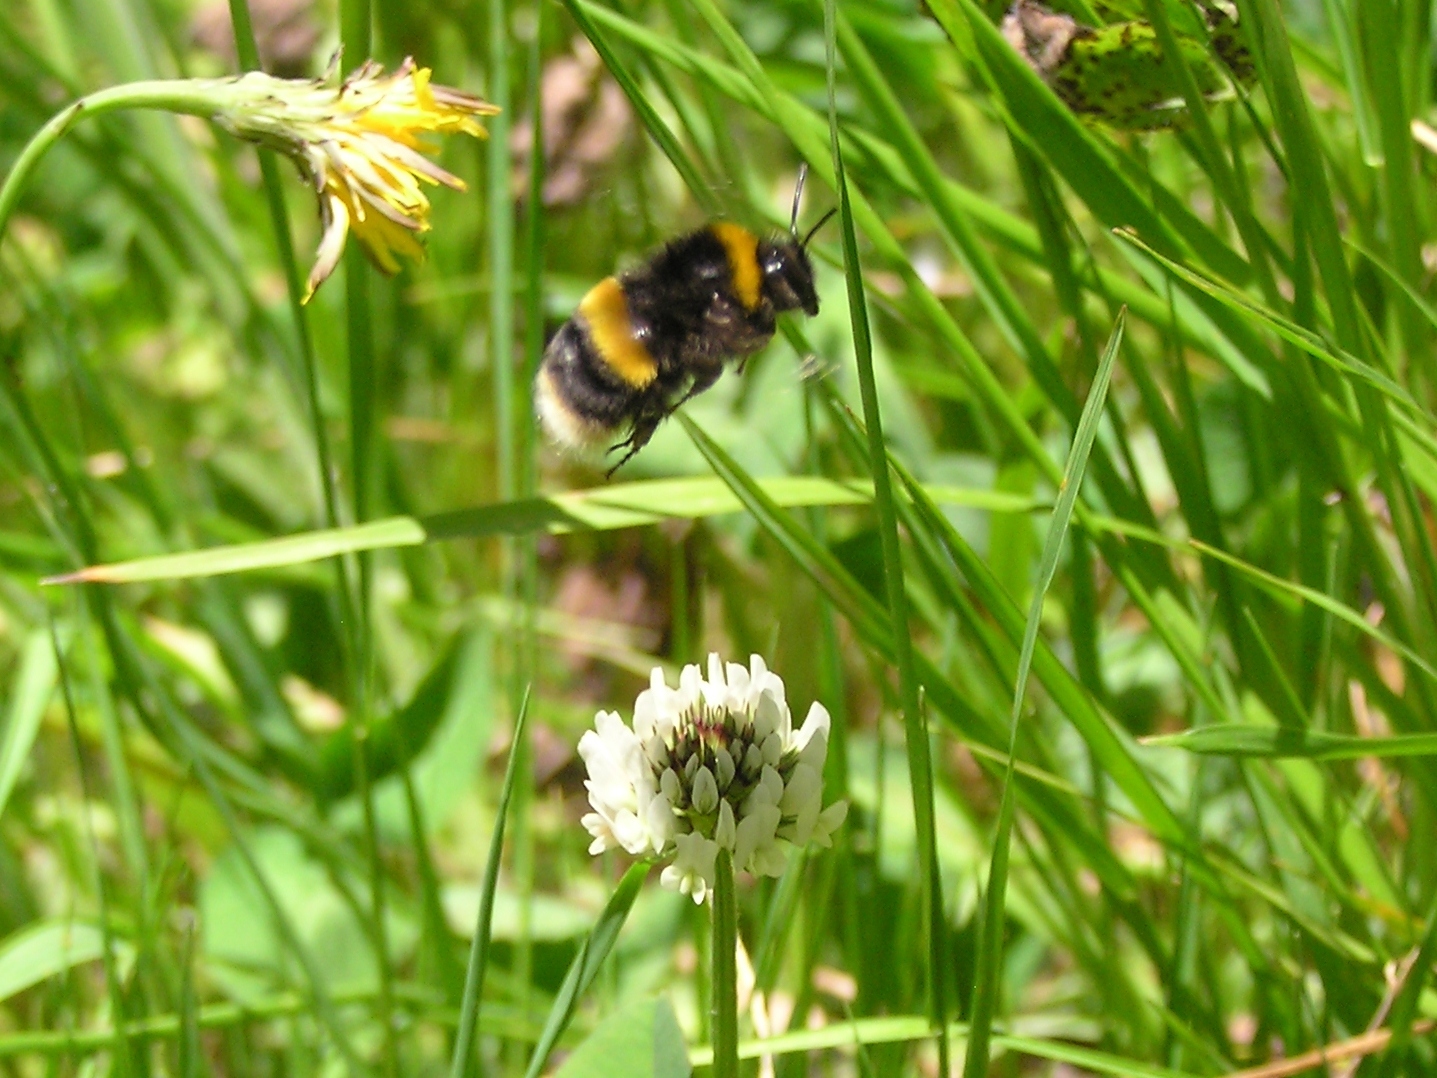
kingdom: Animalia
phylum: Arthropoda
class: Insecta
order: Hymenoptera
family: Apidae
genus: Bombus
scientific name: Bombus terrestris
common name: Buff-tailed bumblebee
